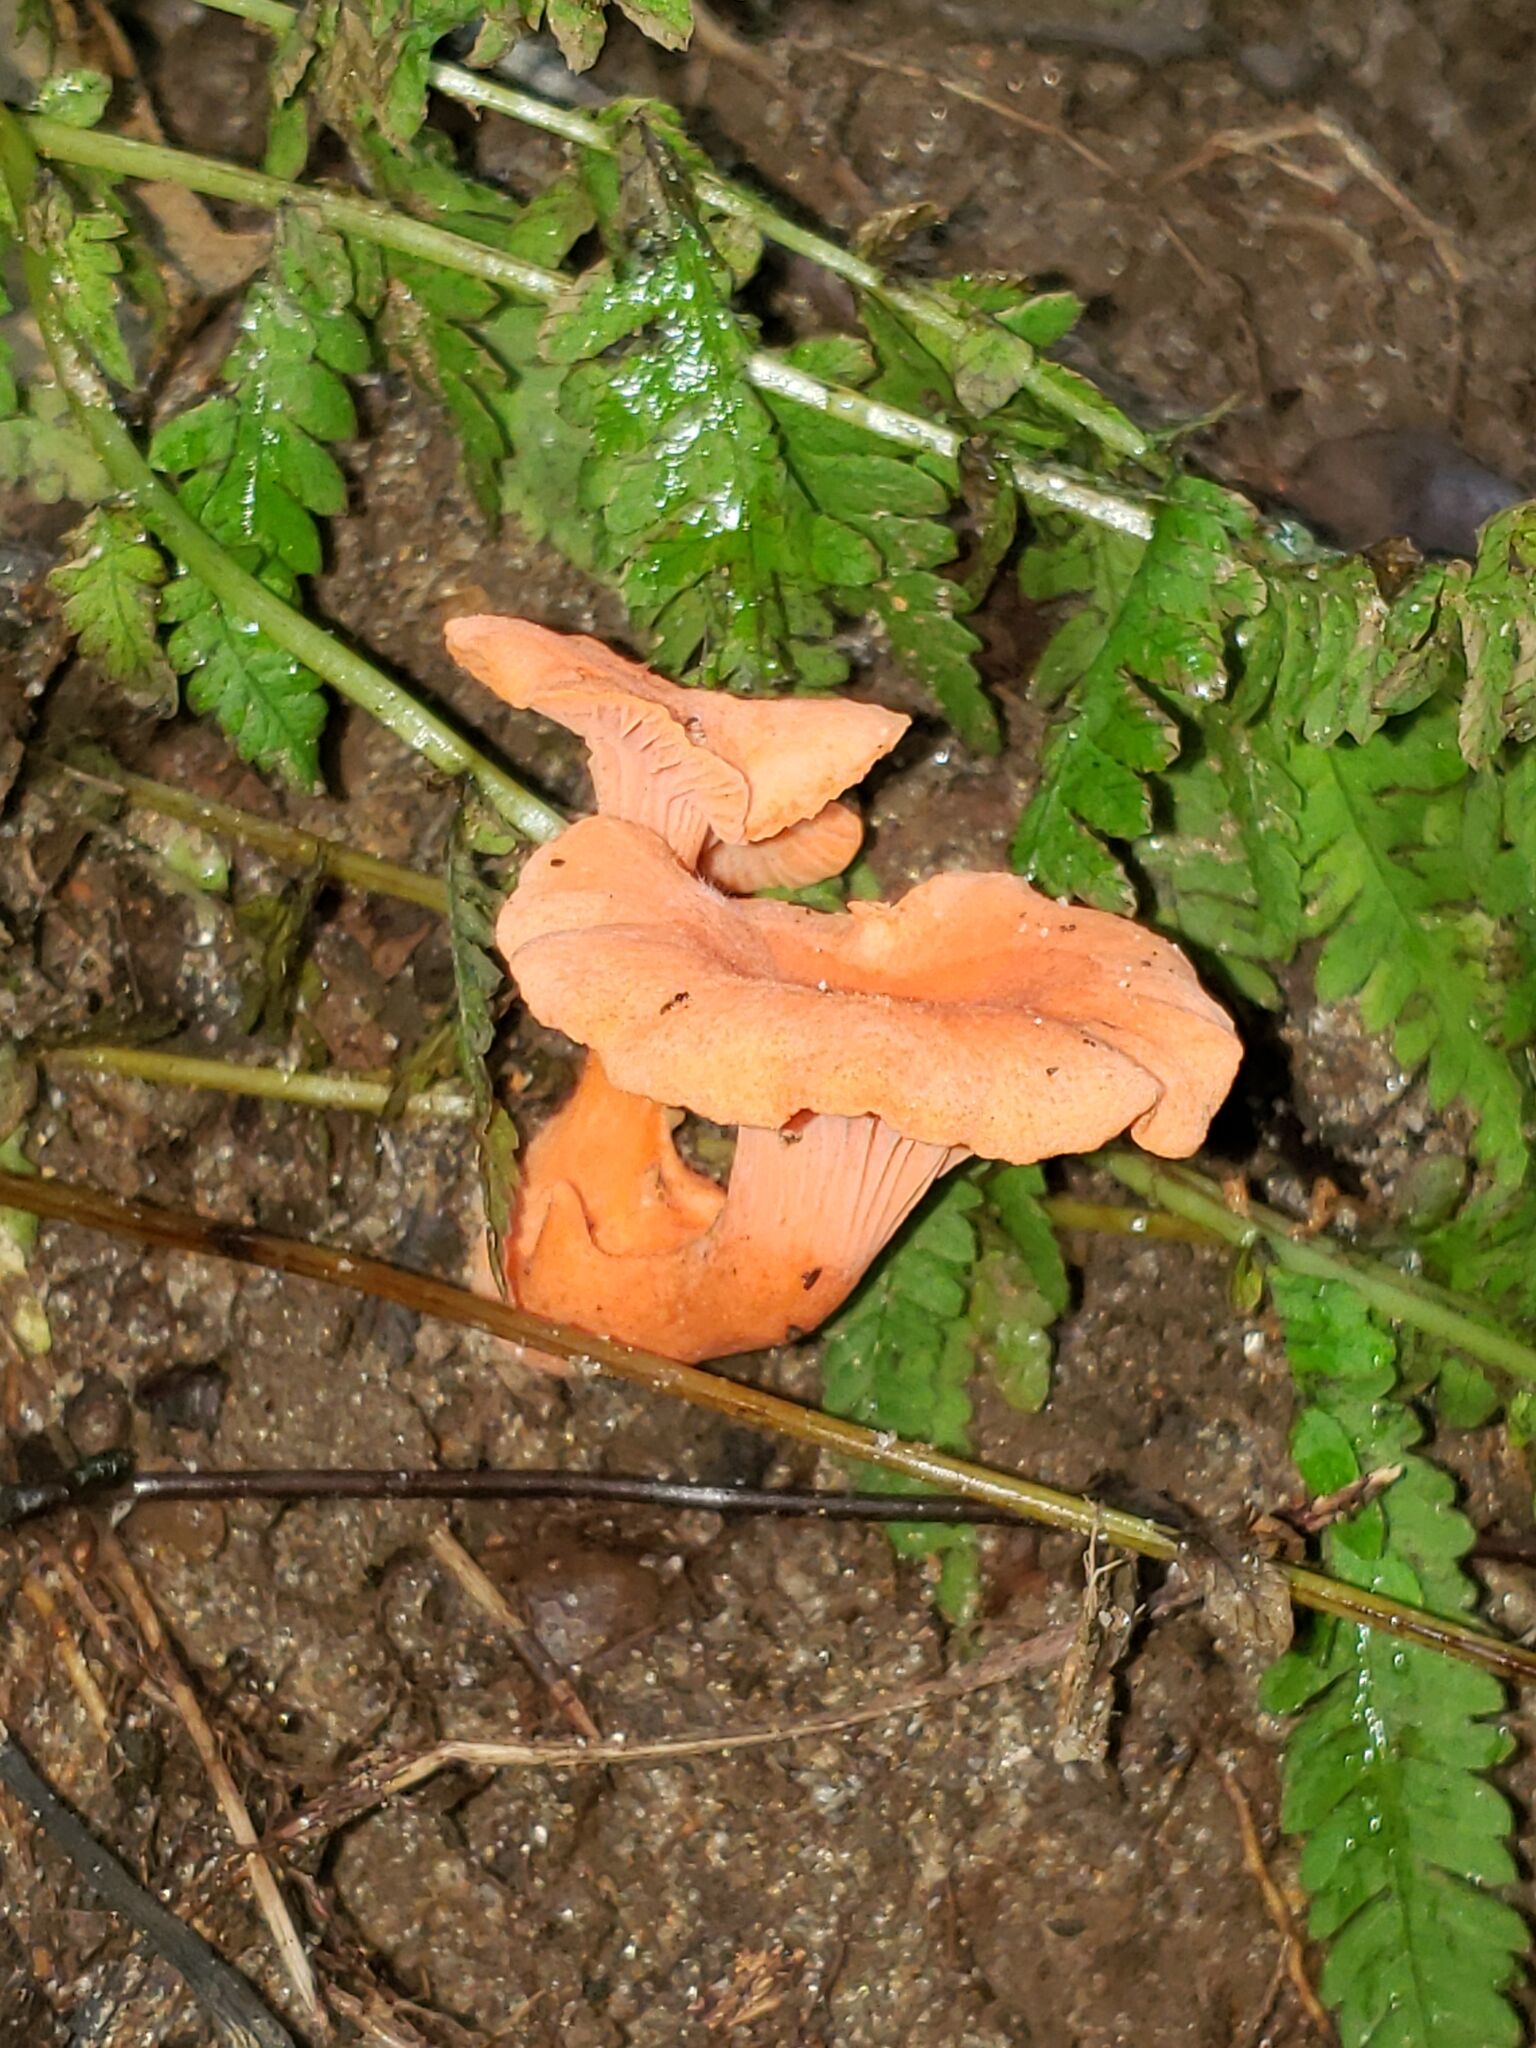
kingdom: Fungi
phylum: Basidiomycota
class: Agaricomycetes
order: Cantharellales
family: Hydnaceae
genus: Cantharellus
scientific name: Cantharellus cinnabarinus
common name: Cinnabar chanterelle
